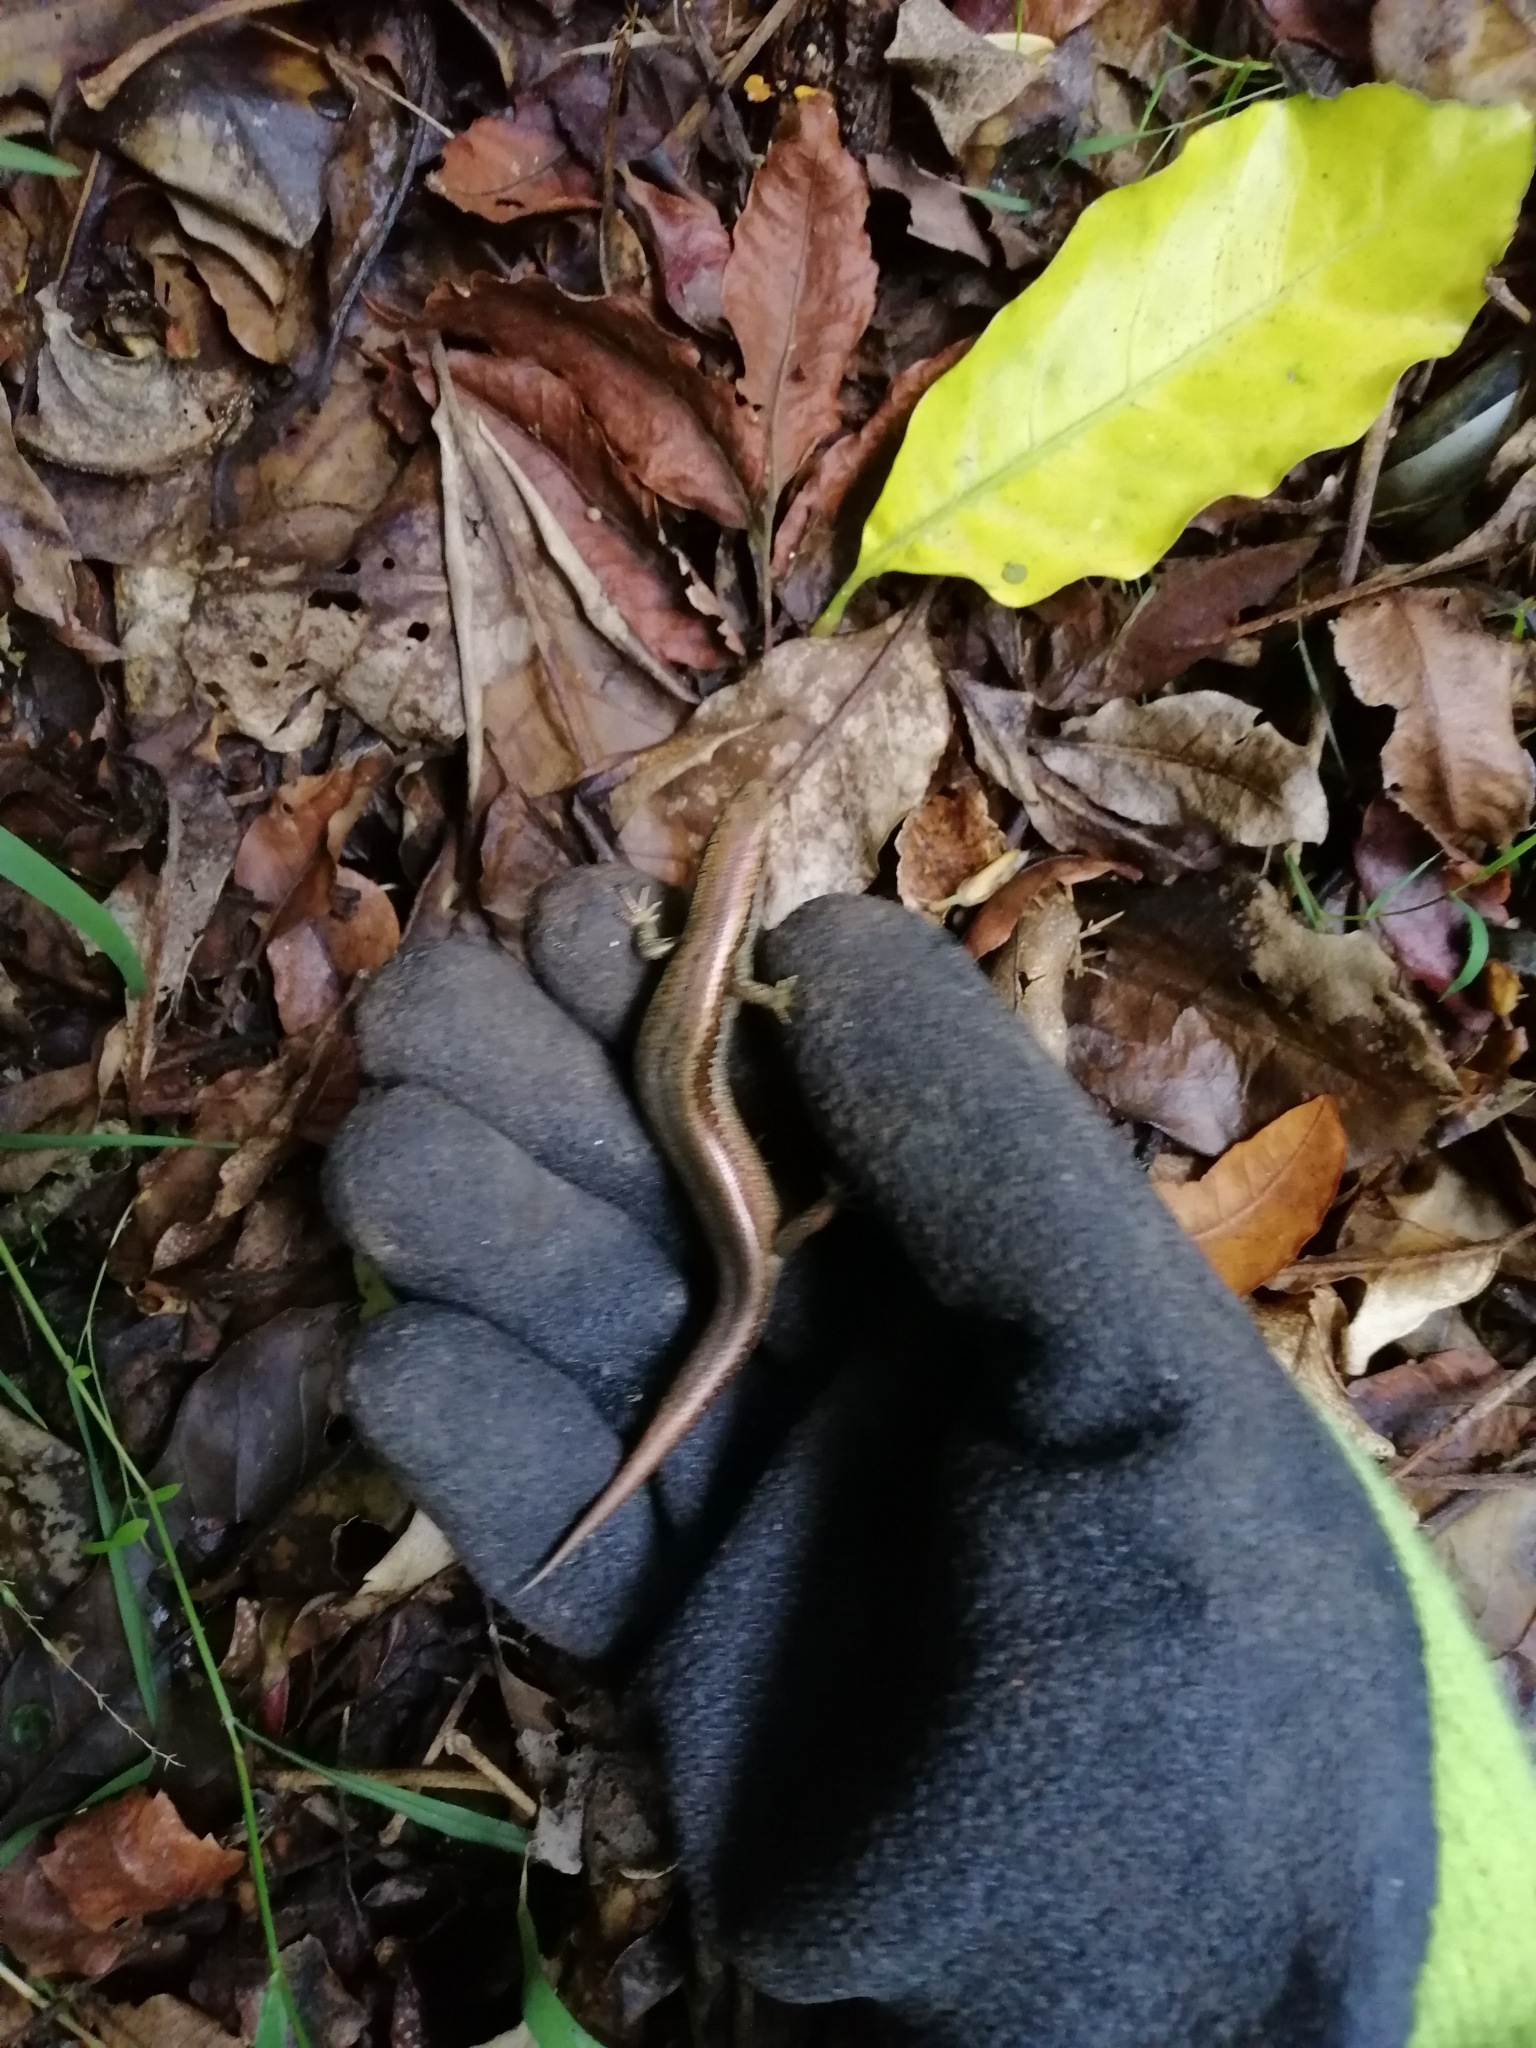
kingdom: Animalia
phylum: Chordata
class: Squamata
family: Scincidae
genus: Oligosoma
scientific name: Oligosoma polychroma
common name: Common new zealand skink
